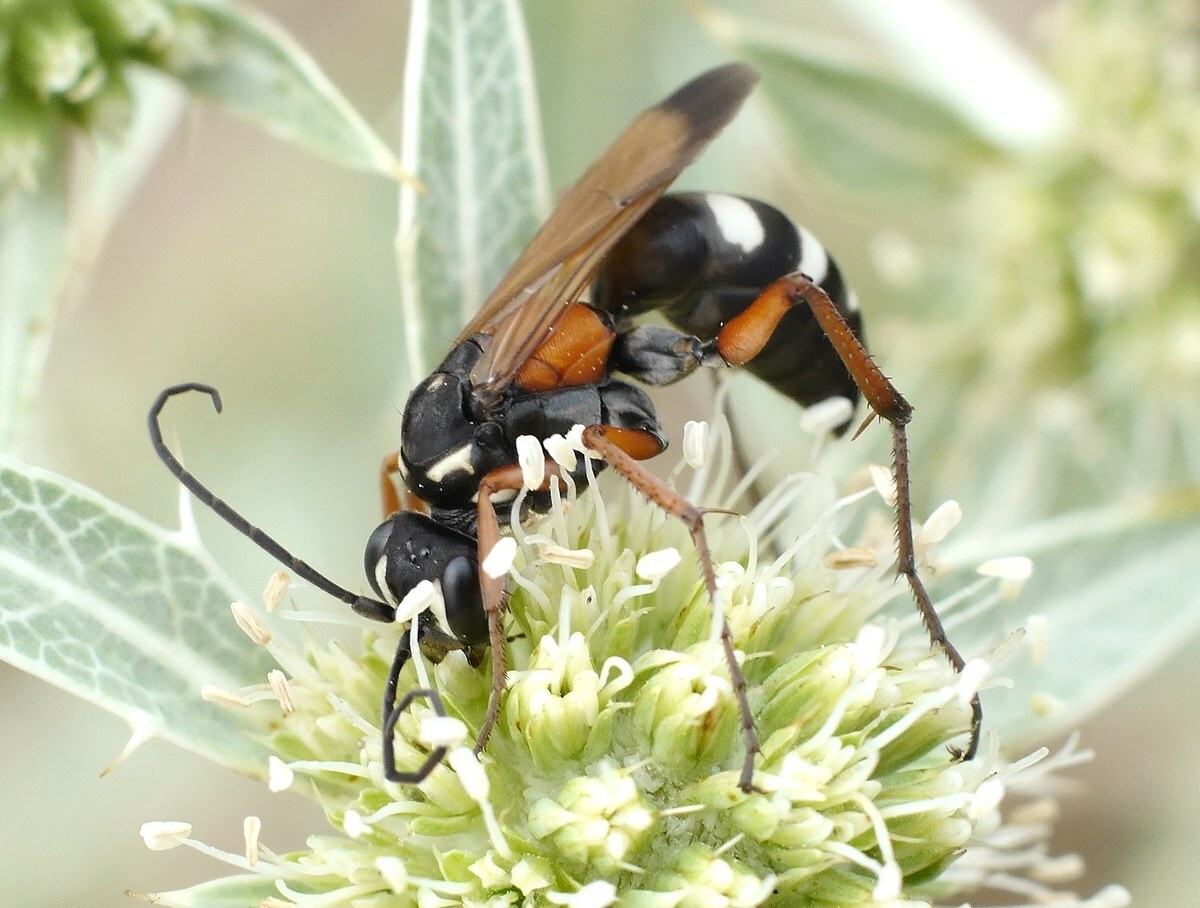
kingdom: Animalia
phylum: Arthropoda
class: Insecta
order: Hymenoptera
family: Pompilidae
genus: Cryptocheilus
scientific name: Cryptocheilus fabricii
